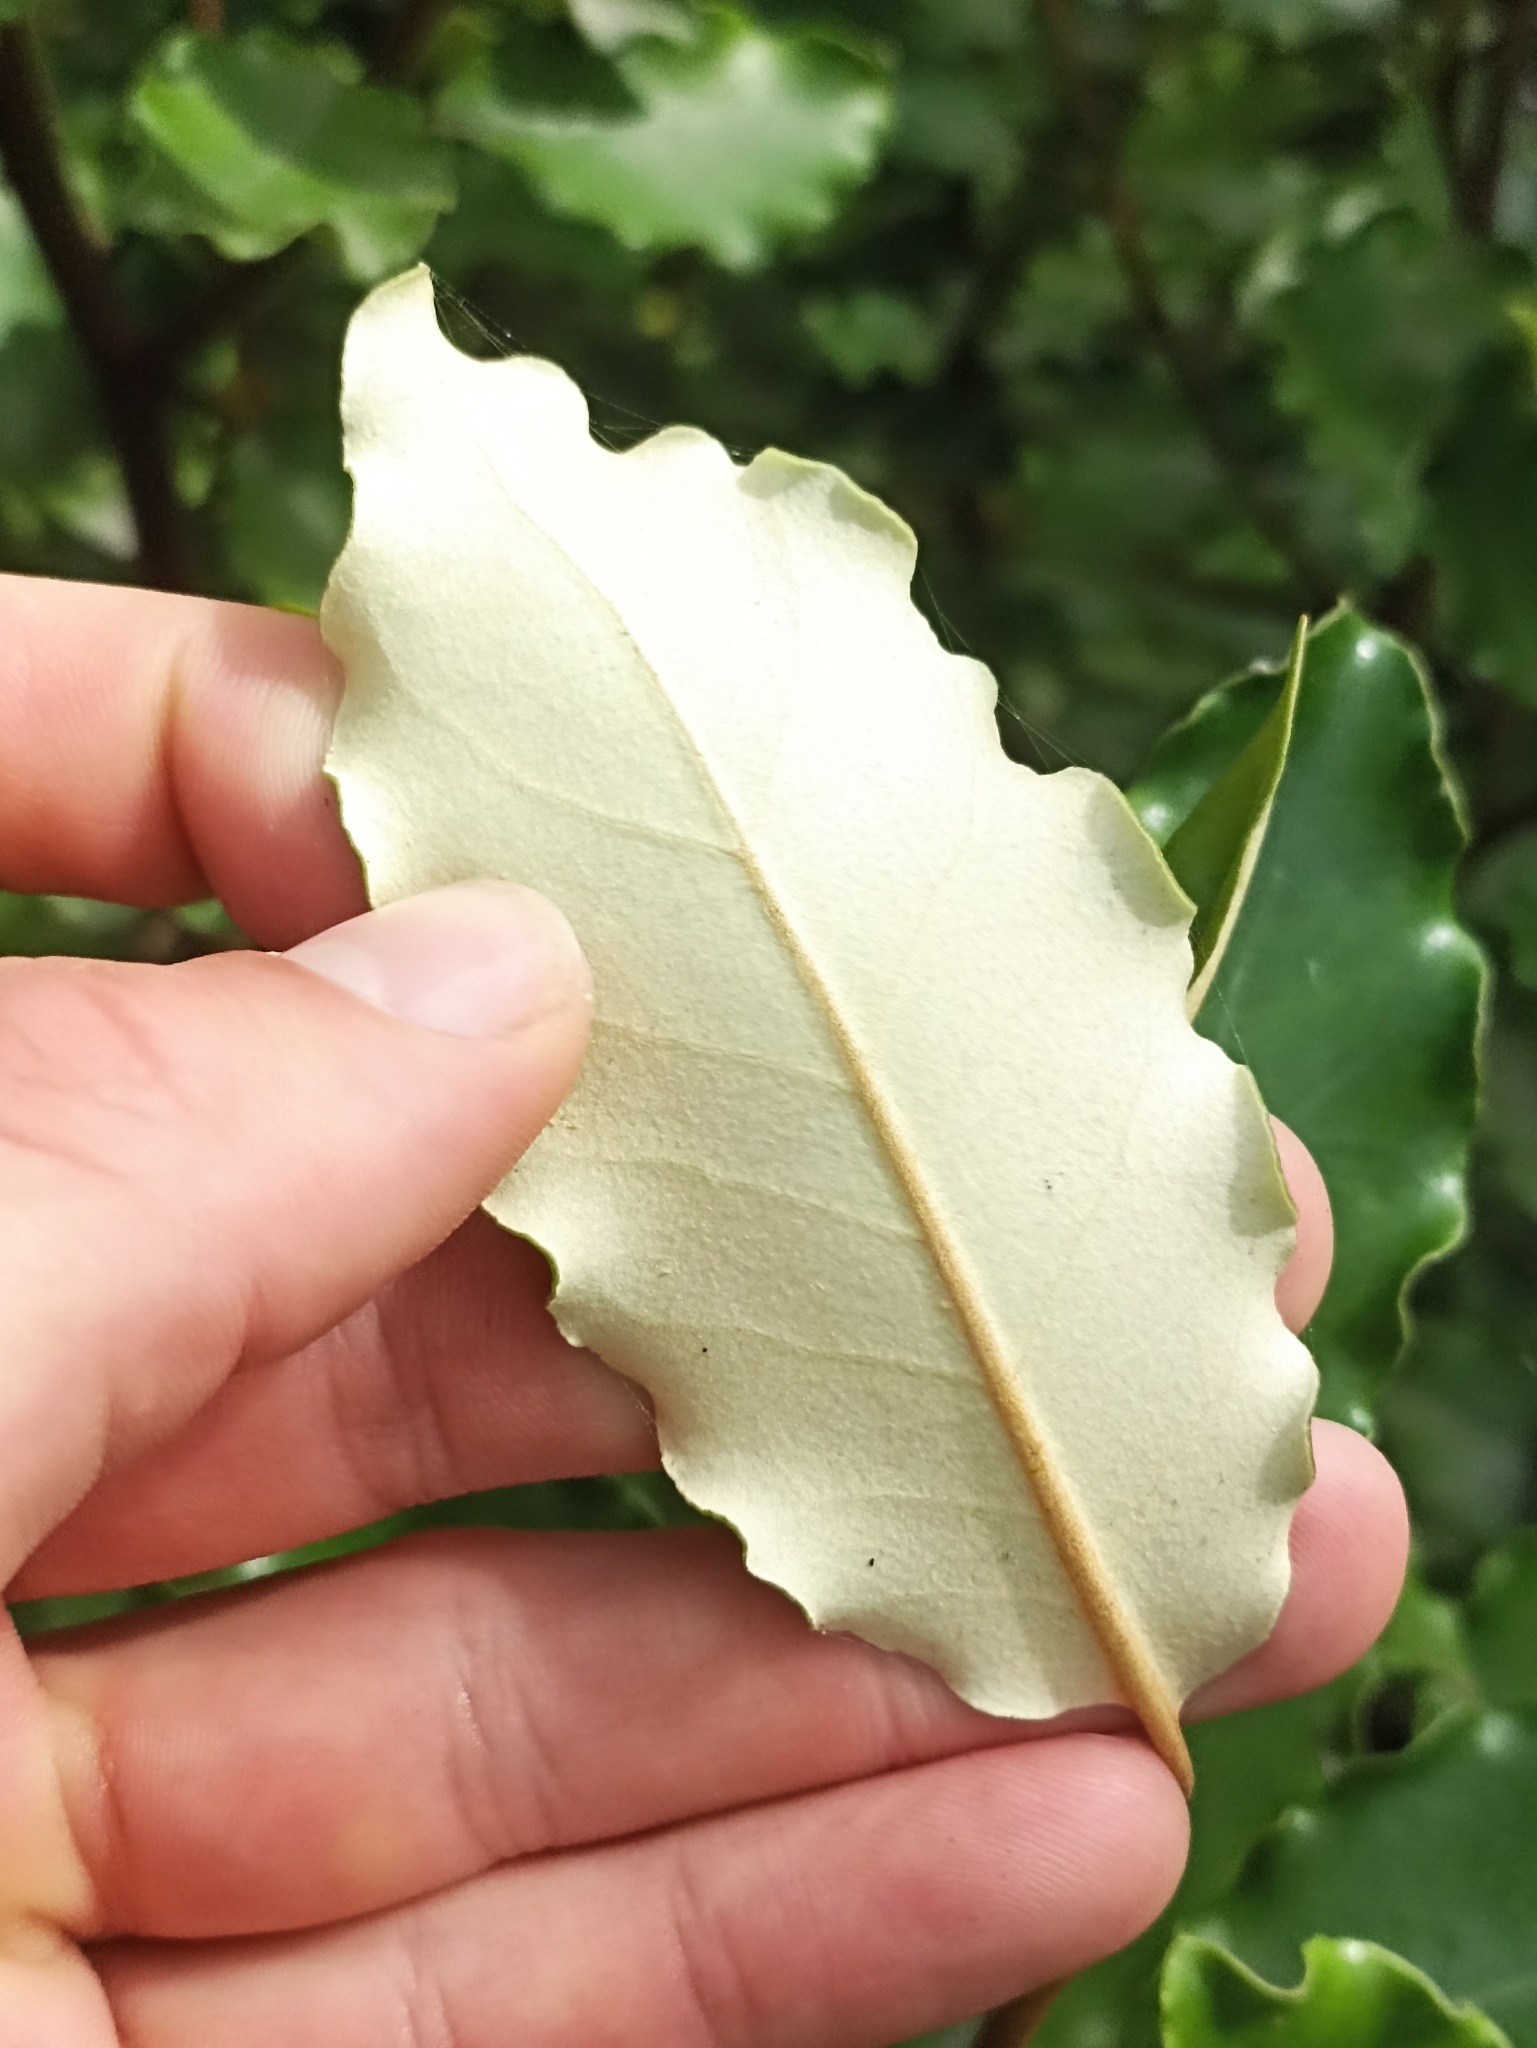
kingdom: Plantae
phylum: Tracheophyta
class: Magnoliopsida
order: Asterales
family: Asteraceae
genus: Olearia
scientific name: Olearia paniculata
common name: Akiraho
